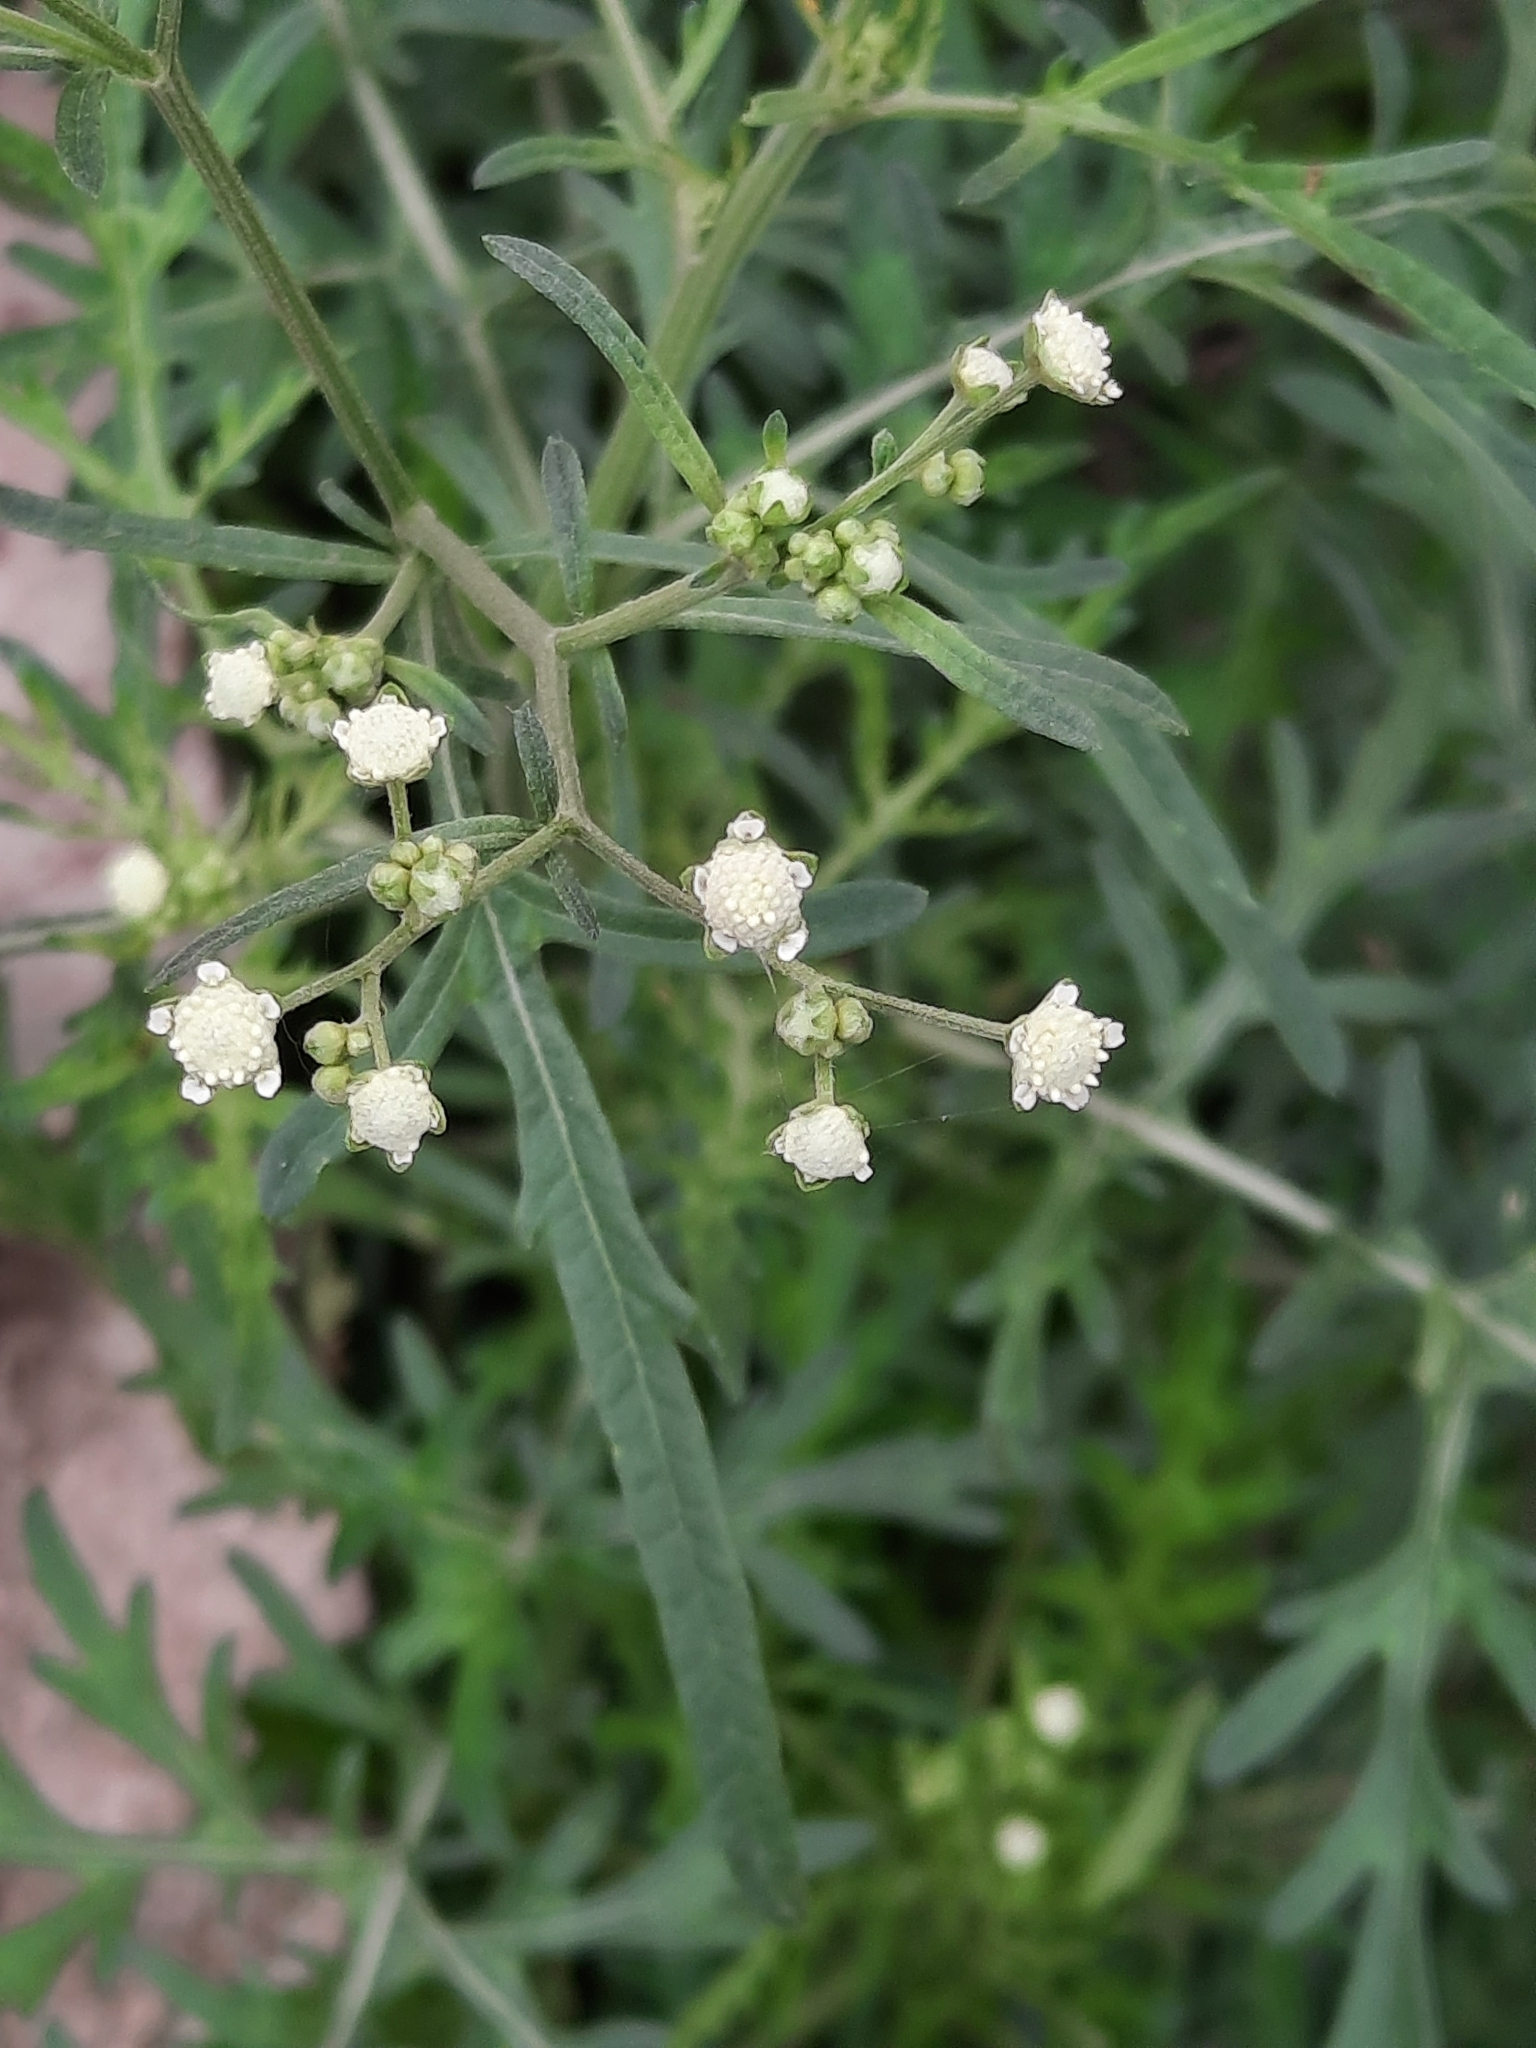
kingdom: Plantae
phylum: Tracheophyta
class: Magnoliopsida
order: Asterales
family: Asteraceae
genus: Parthenium
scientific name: Parthenium hysterophorus
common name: Santa maria feverfew
